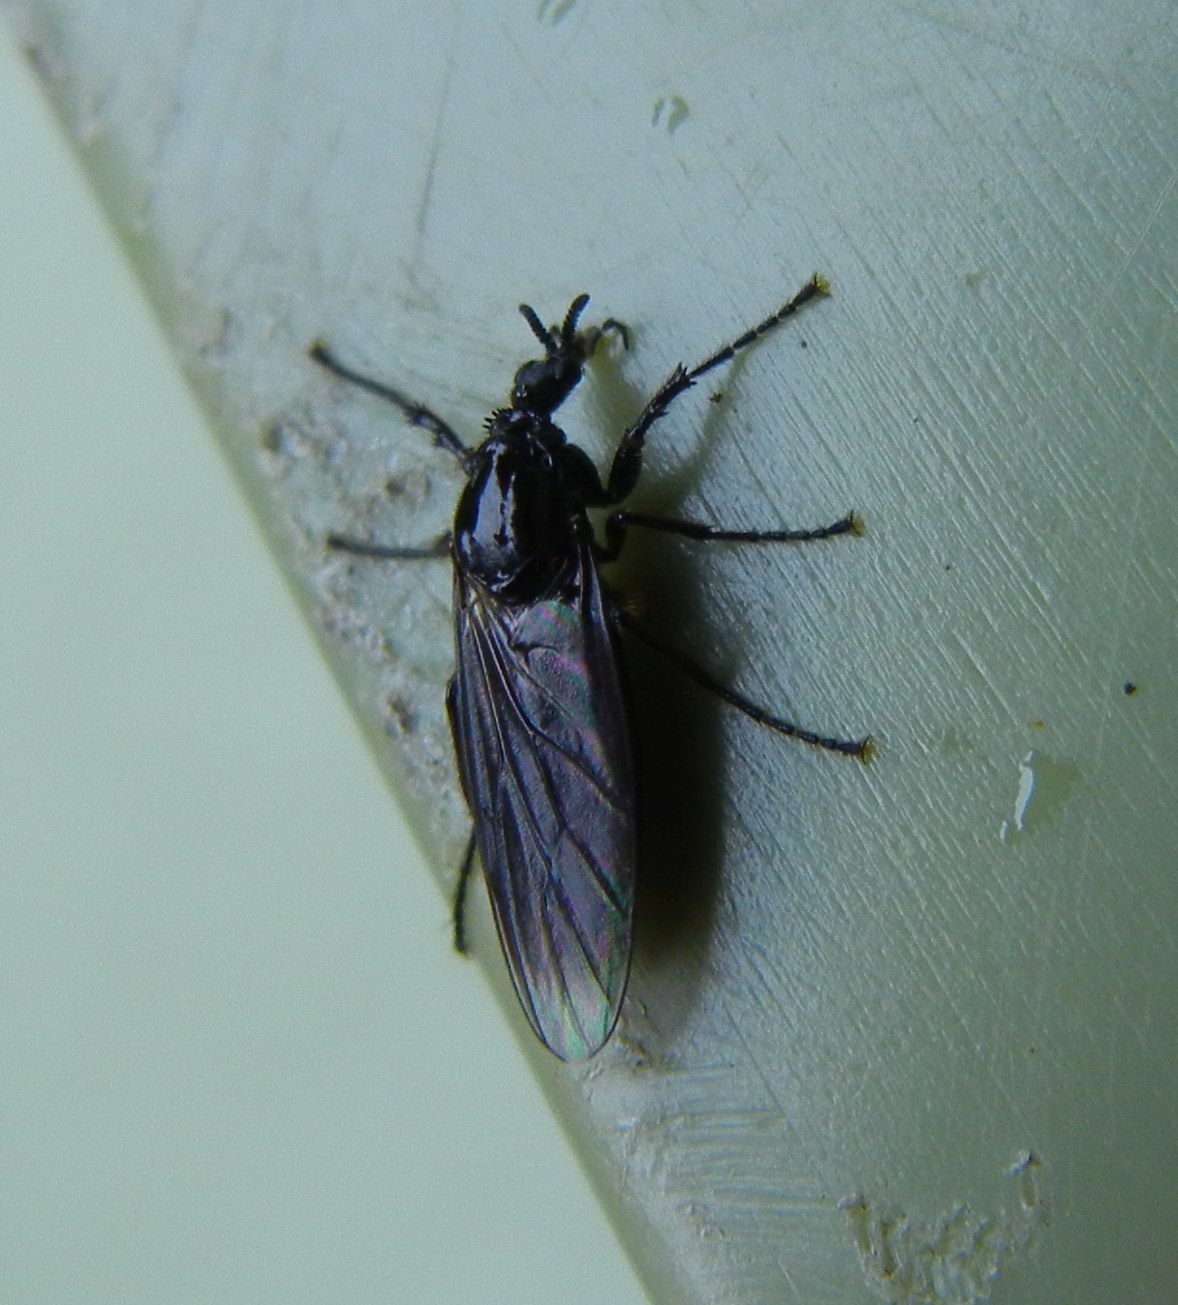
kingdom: Animalia
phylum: Arthropoda
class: Insecta
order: Diptera
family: Bibionidae
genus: Dilophus
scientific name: Dilophus febrilis
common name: Fever fly
